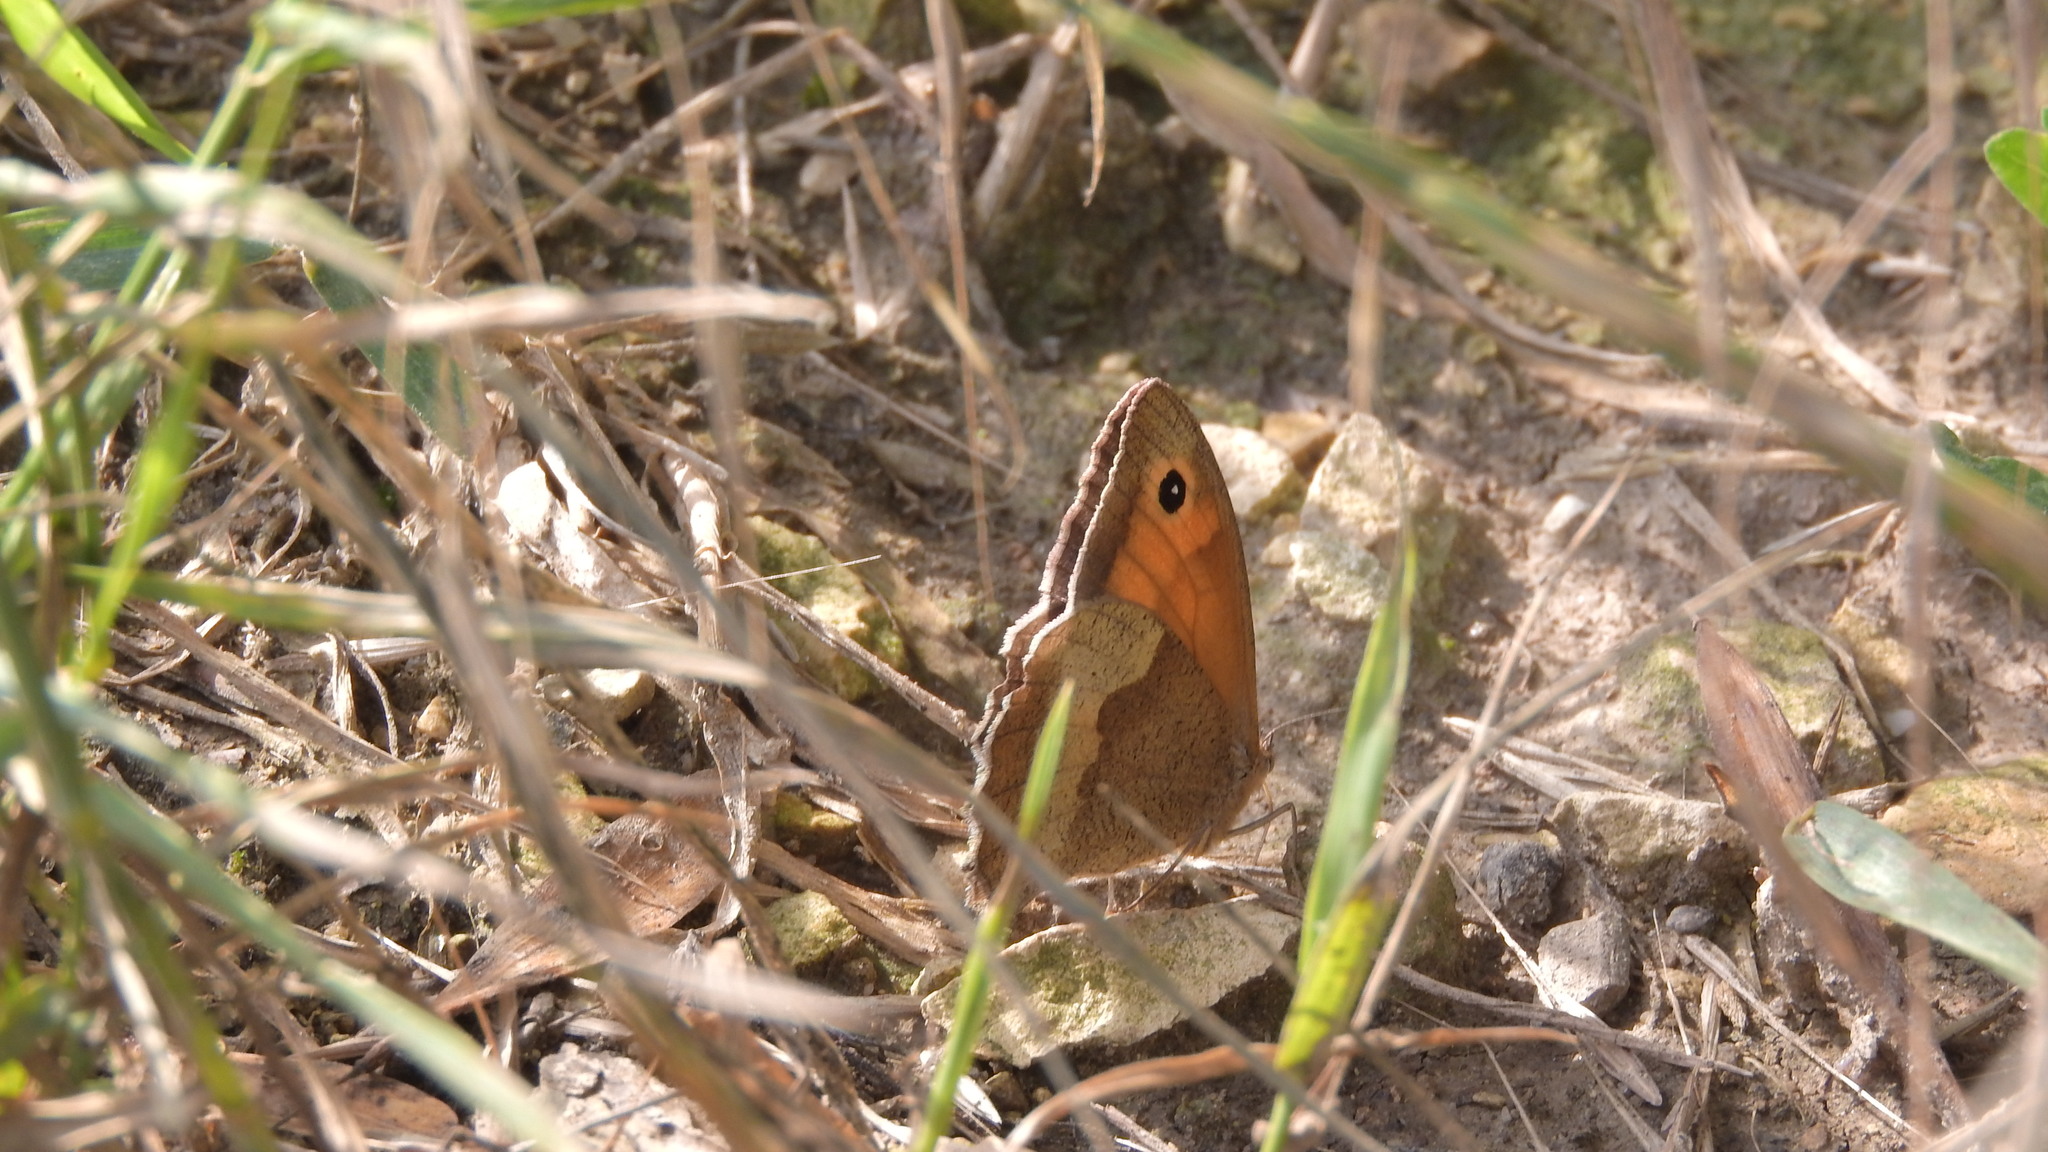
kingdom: Animalia
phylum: Arthropoda
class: Insecta
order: Lepidoptera
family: Nymphalidae
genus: Maniola
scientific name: Maniola jurtina
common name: Meadow brown
